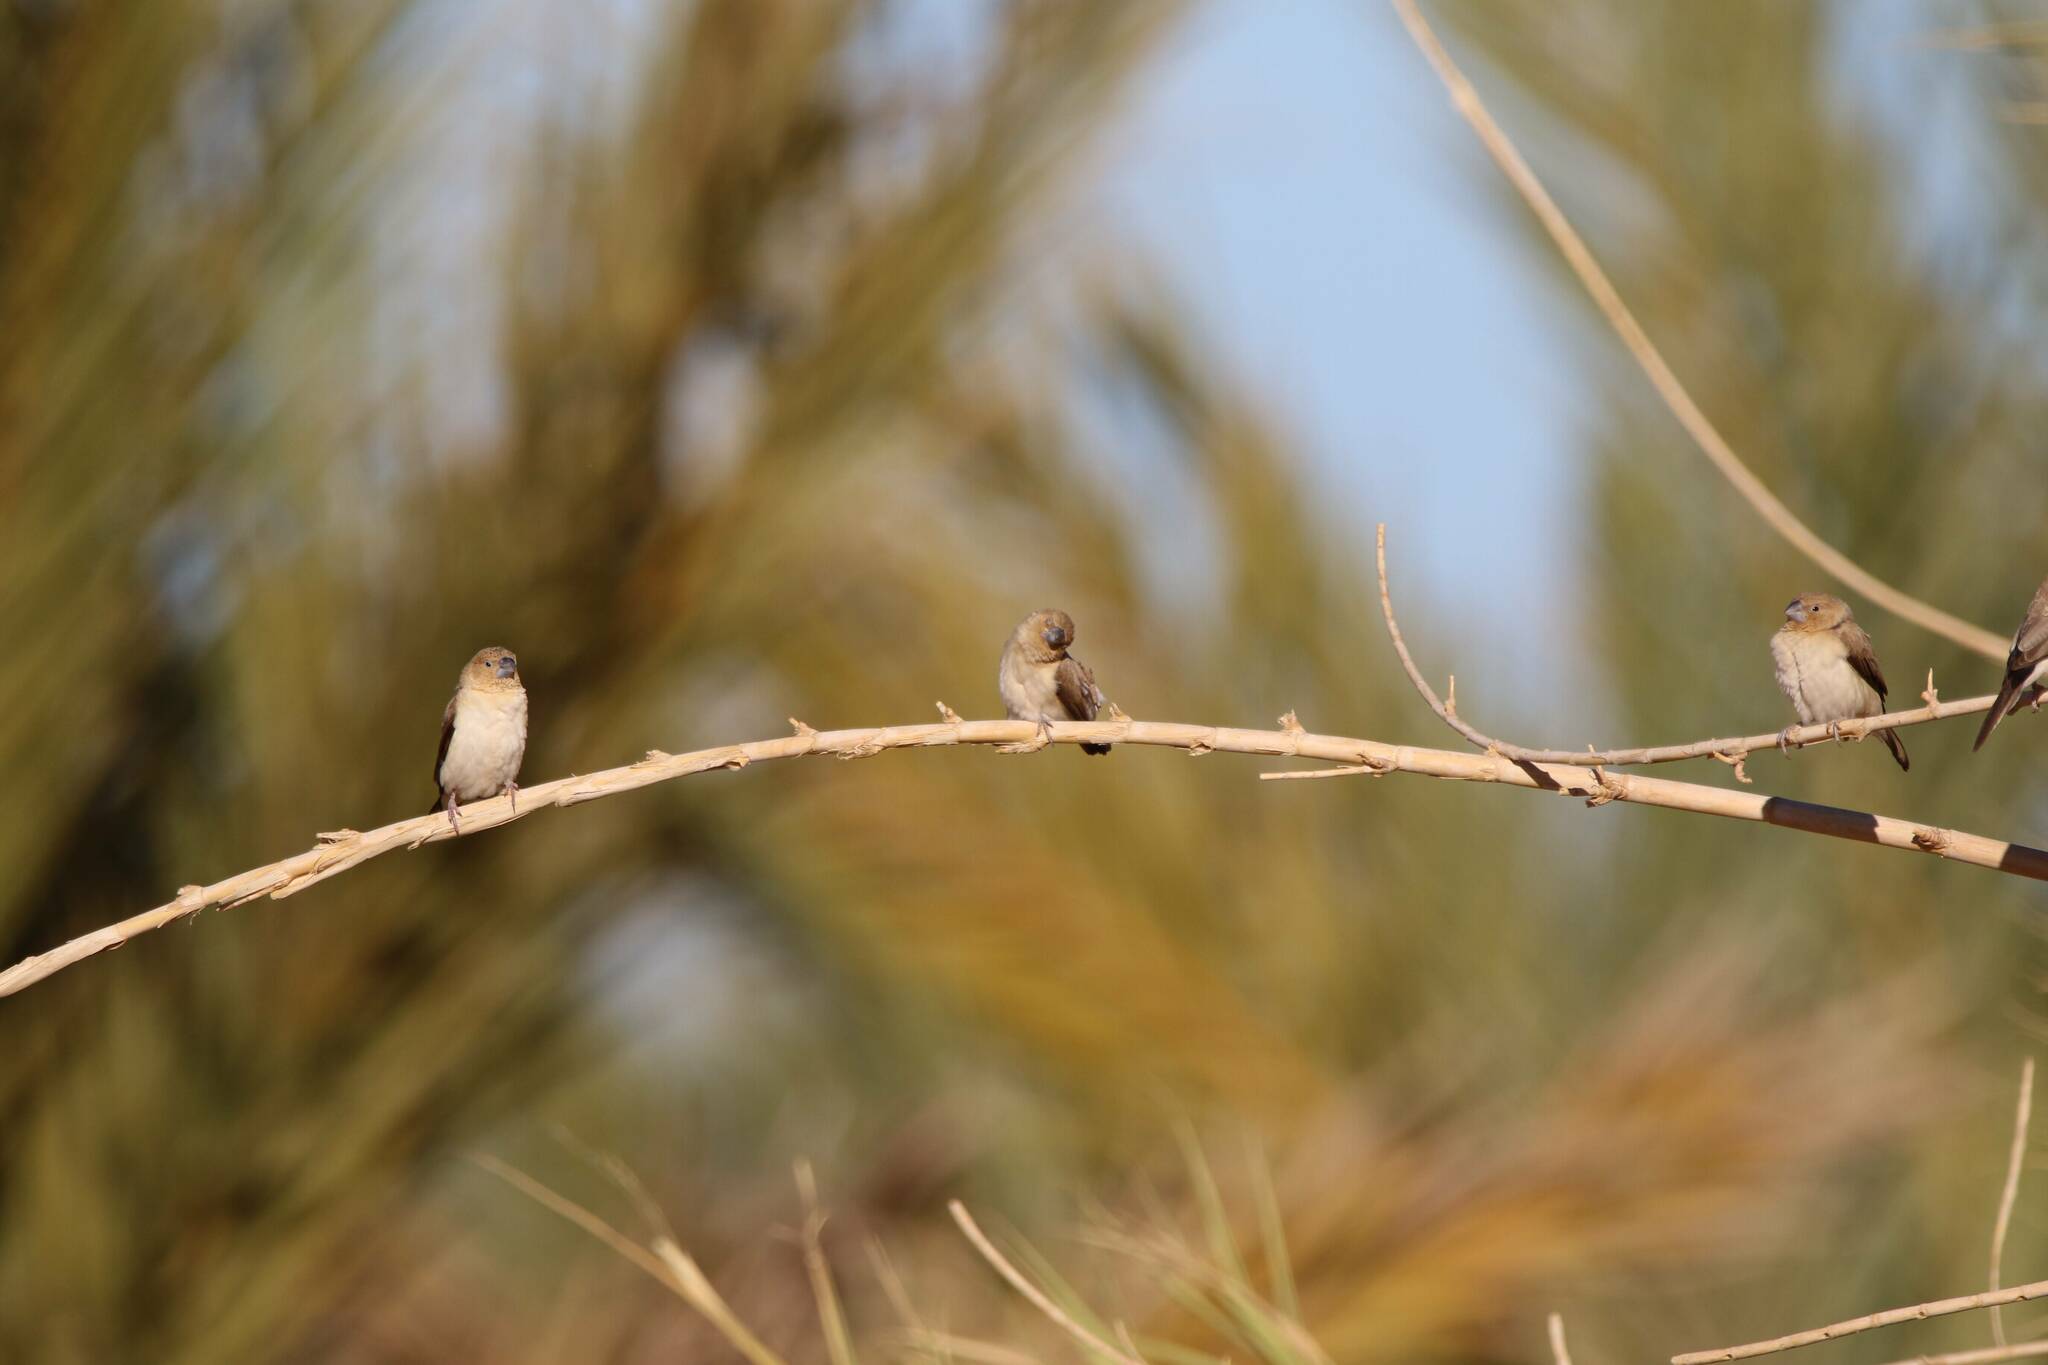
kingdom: Animalia
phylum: Chordata
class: Aves
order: Passeriformes
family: Estrildidae
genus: Euodice
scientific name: Euodice cantans
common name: African silverbill
